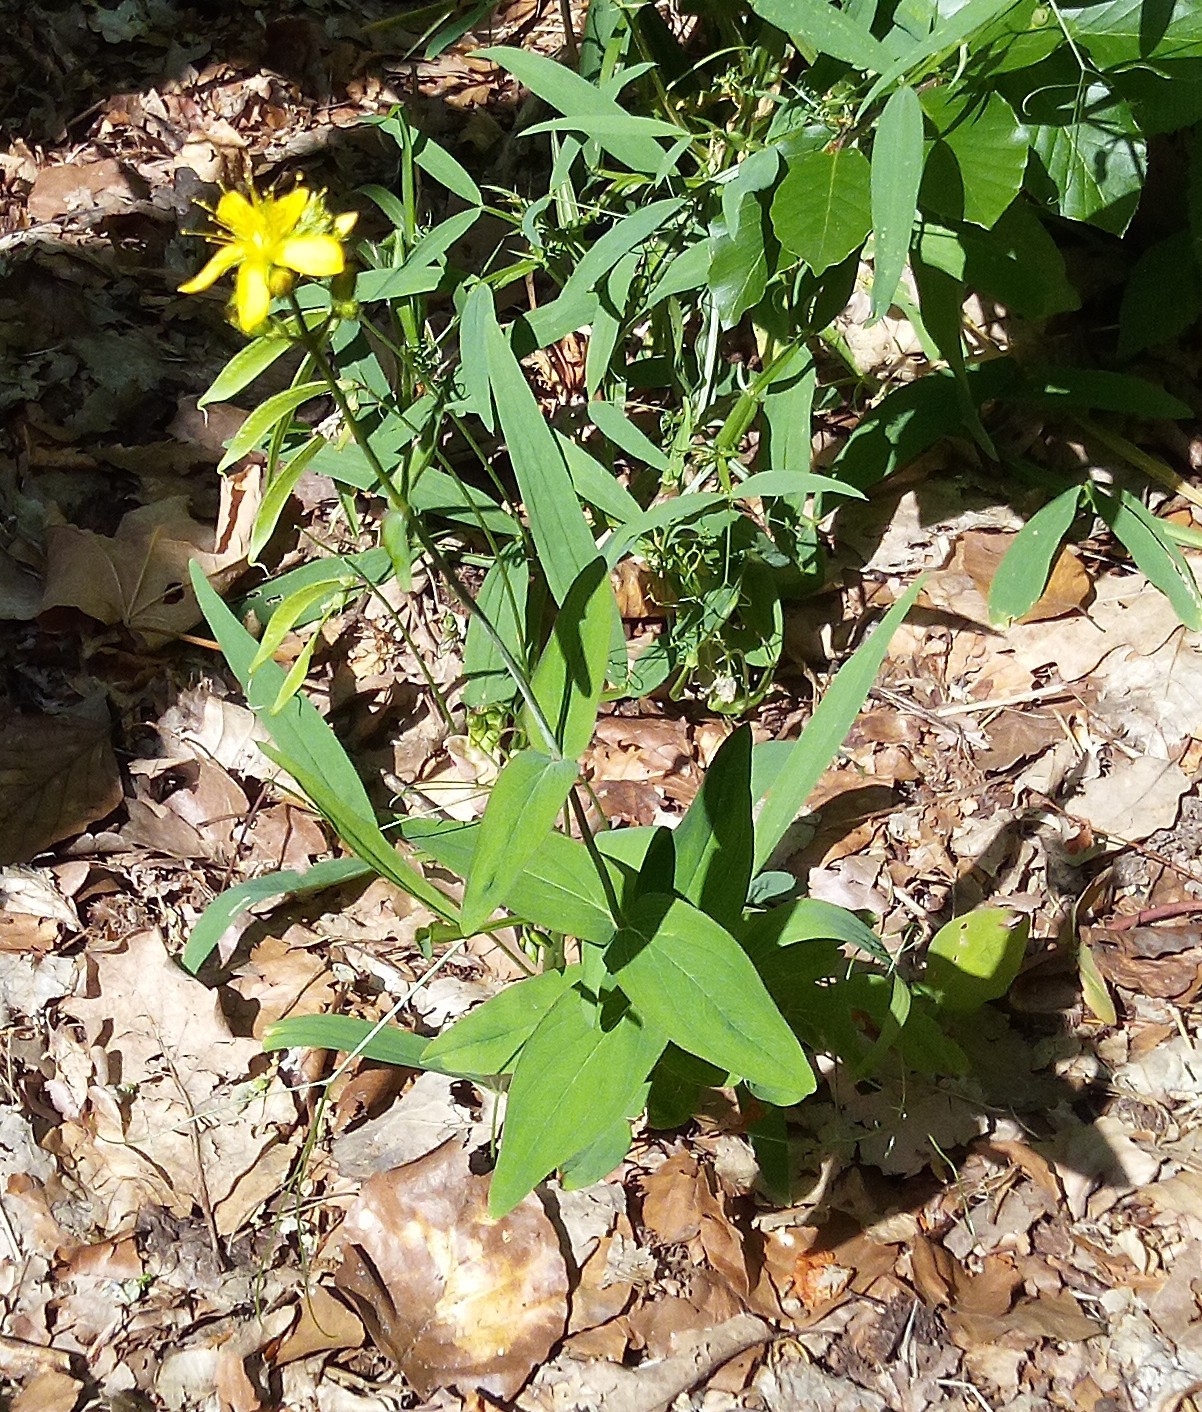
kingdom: Plantae
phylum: Tracheophyta
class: Magnoliopsida
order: Malpighiales
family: Hypericaceae
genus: Hypericum
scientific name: Hypericum montanum
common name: Pale st. john's-wort
